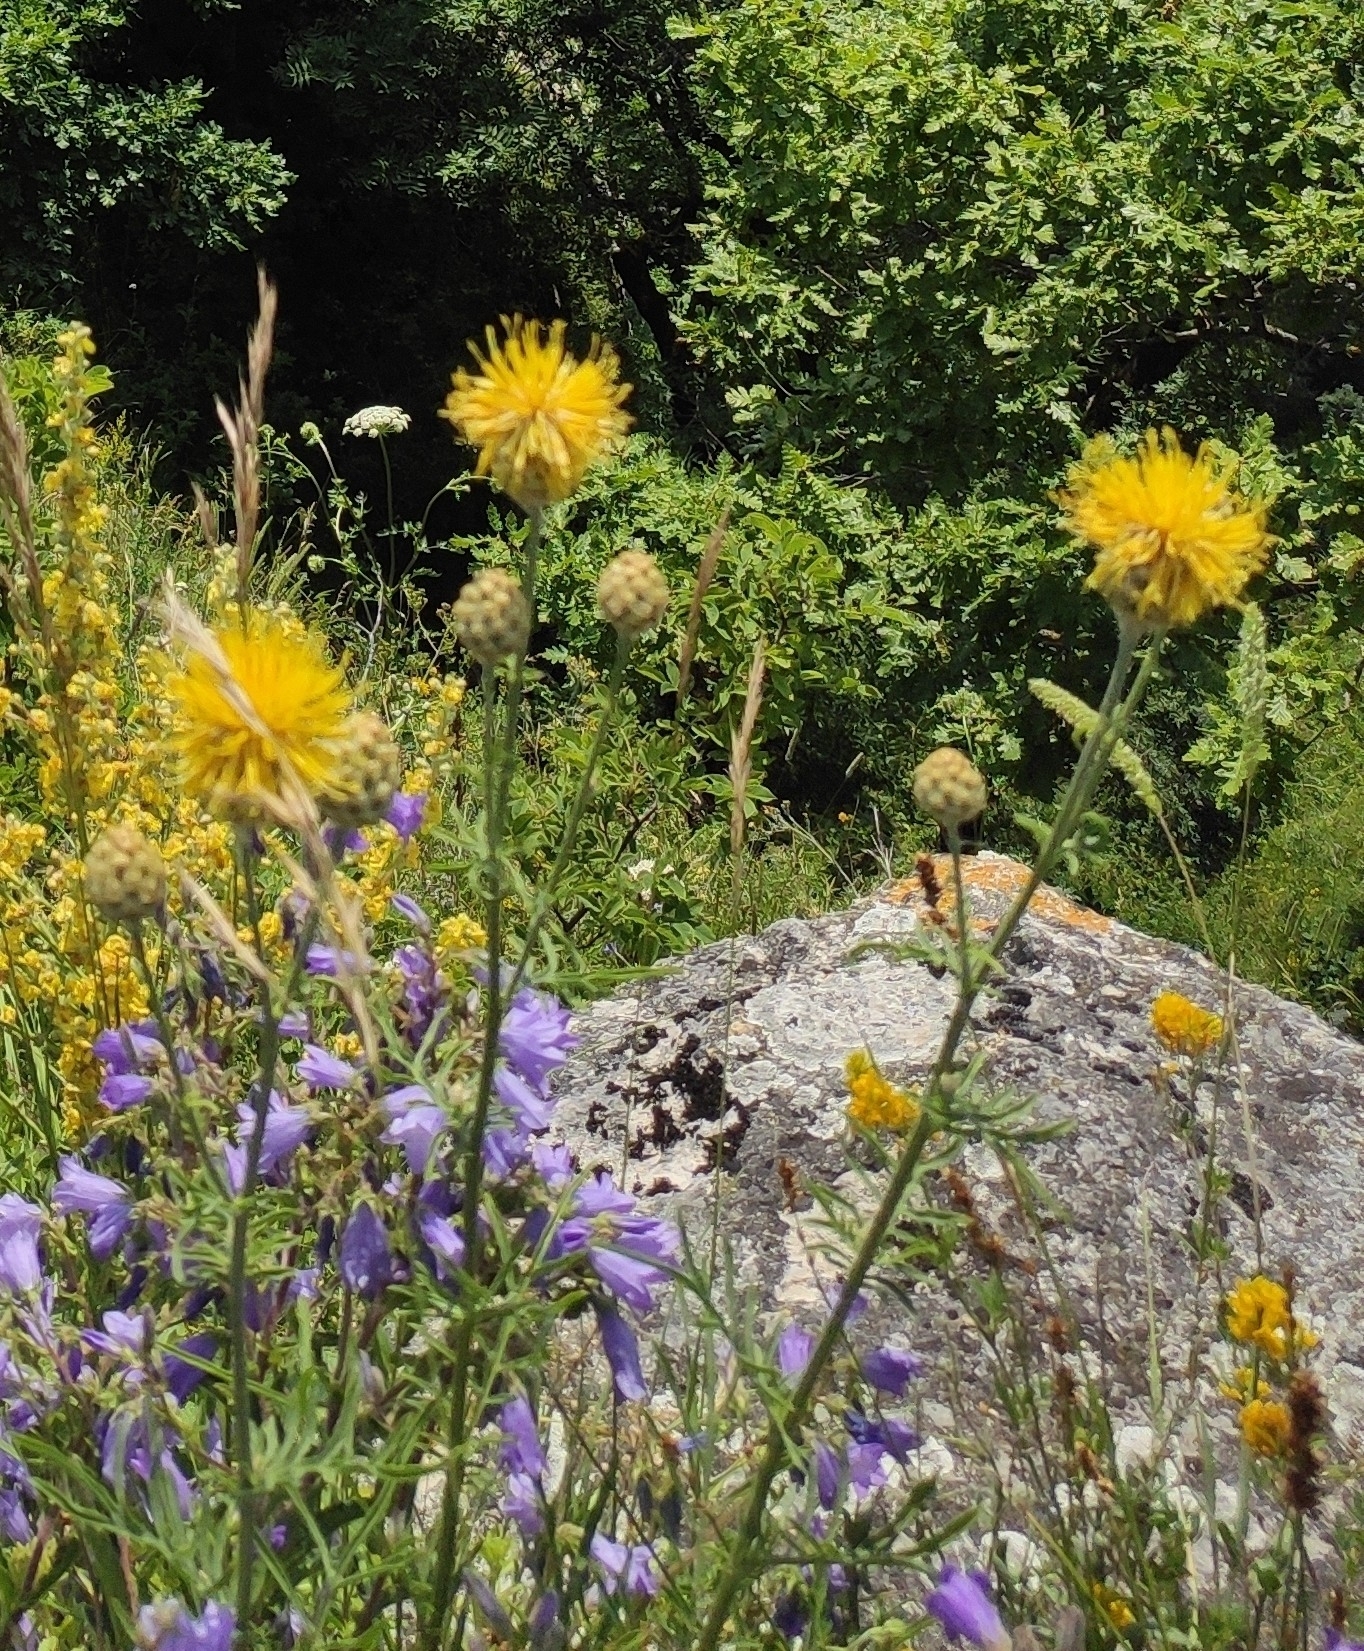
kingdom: Plantae
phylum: Tracheophyta
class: Magnoliopsida
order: Asterales
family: Asteraceae
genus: Centaurea
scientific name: Centaurea orientalis
